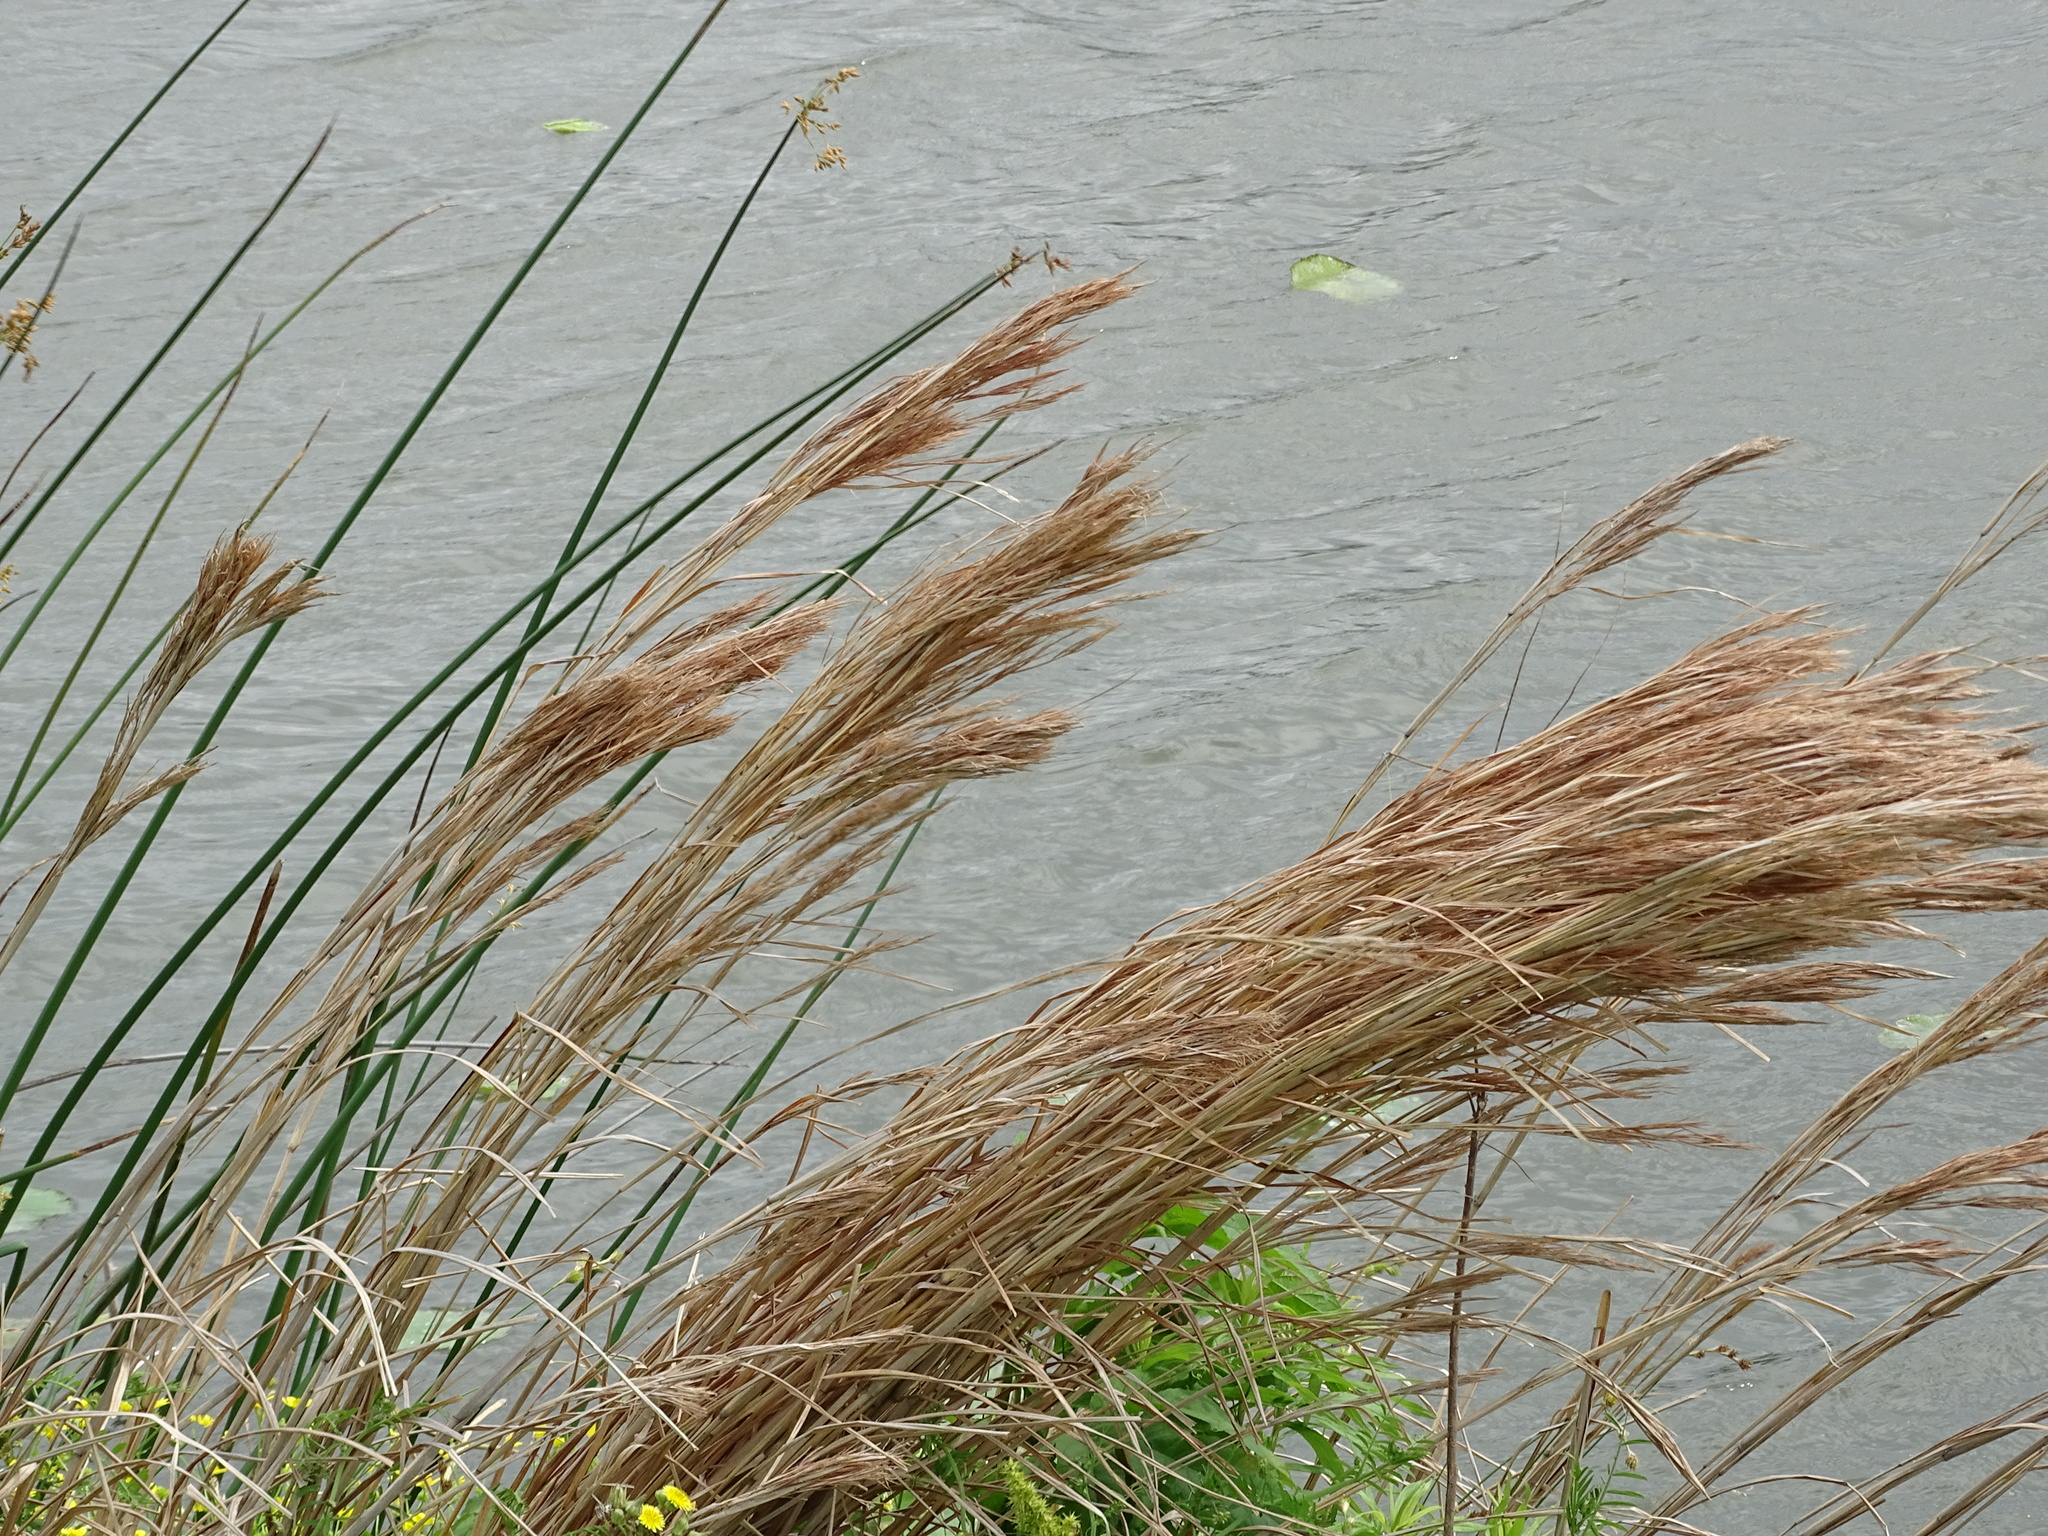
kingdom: Plantae
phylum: Tracheophyta
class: Liliopsida
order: Poales
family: Poaceae
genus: Andropogon
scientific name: Andropogon tenuispatheus
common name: Bushy bluestem
